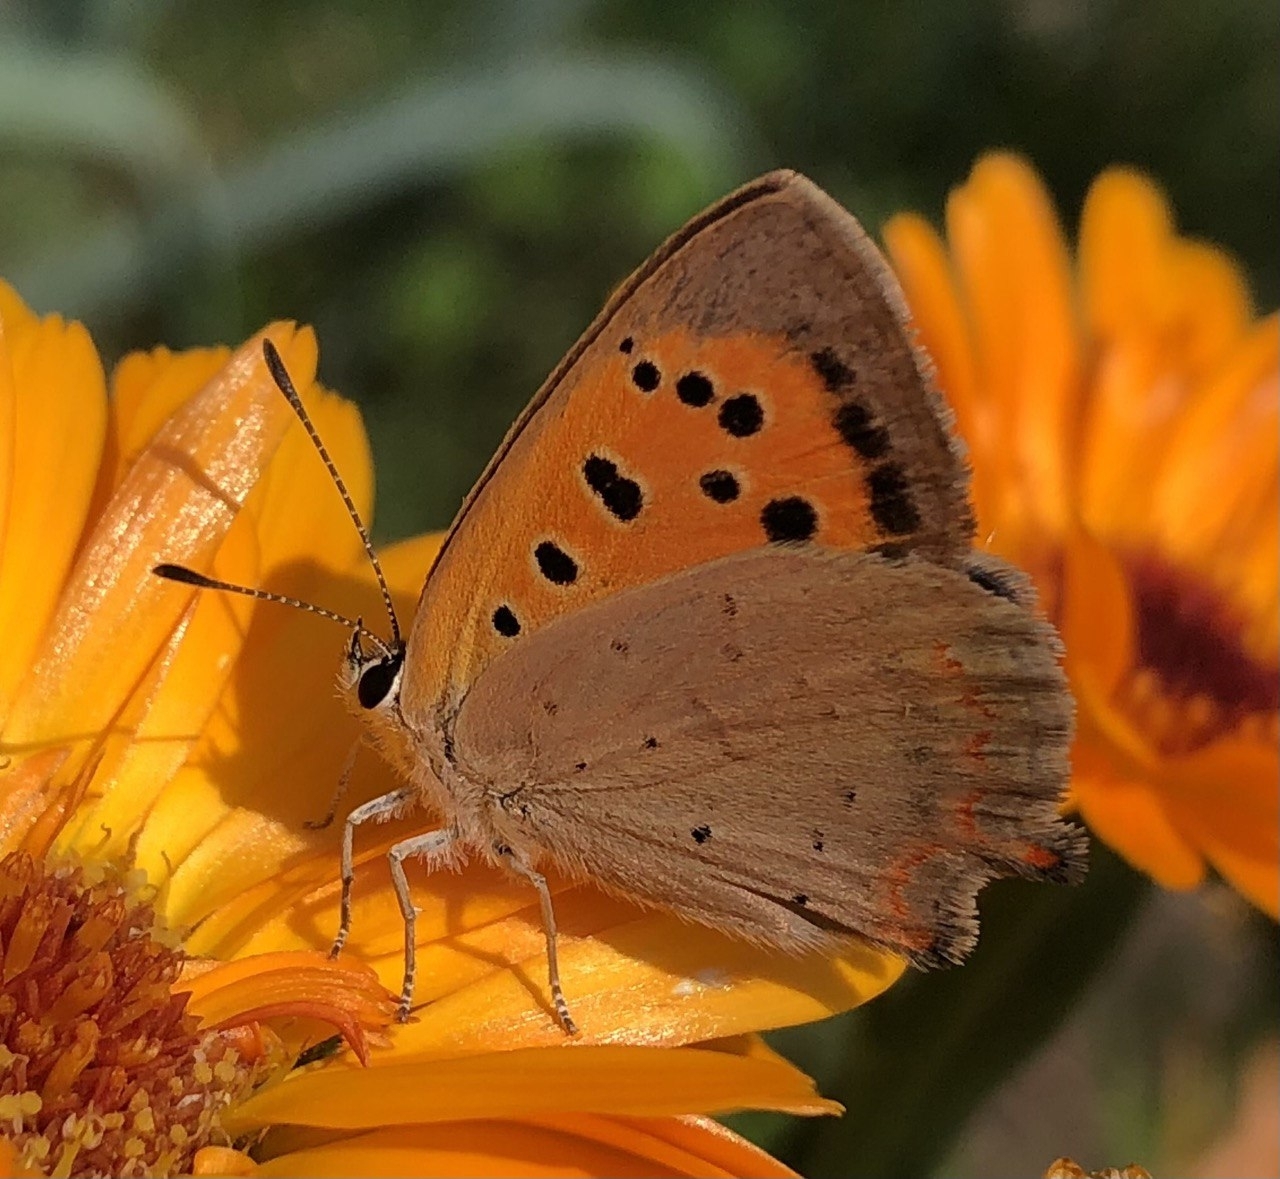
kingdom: Animalia
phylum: Arthropoda
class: Insecta
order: Lepidoptera
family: Lycaenidae
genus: Lycaena
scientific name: Lycaena phlaeas
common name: Small copper
